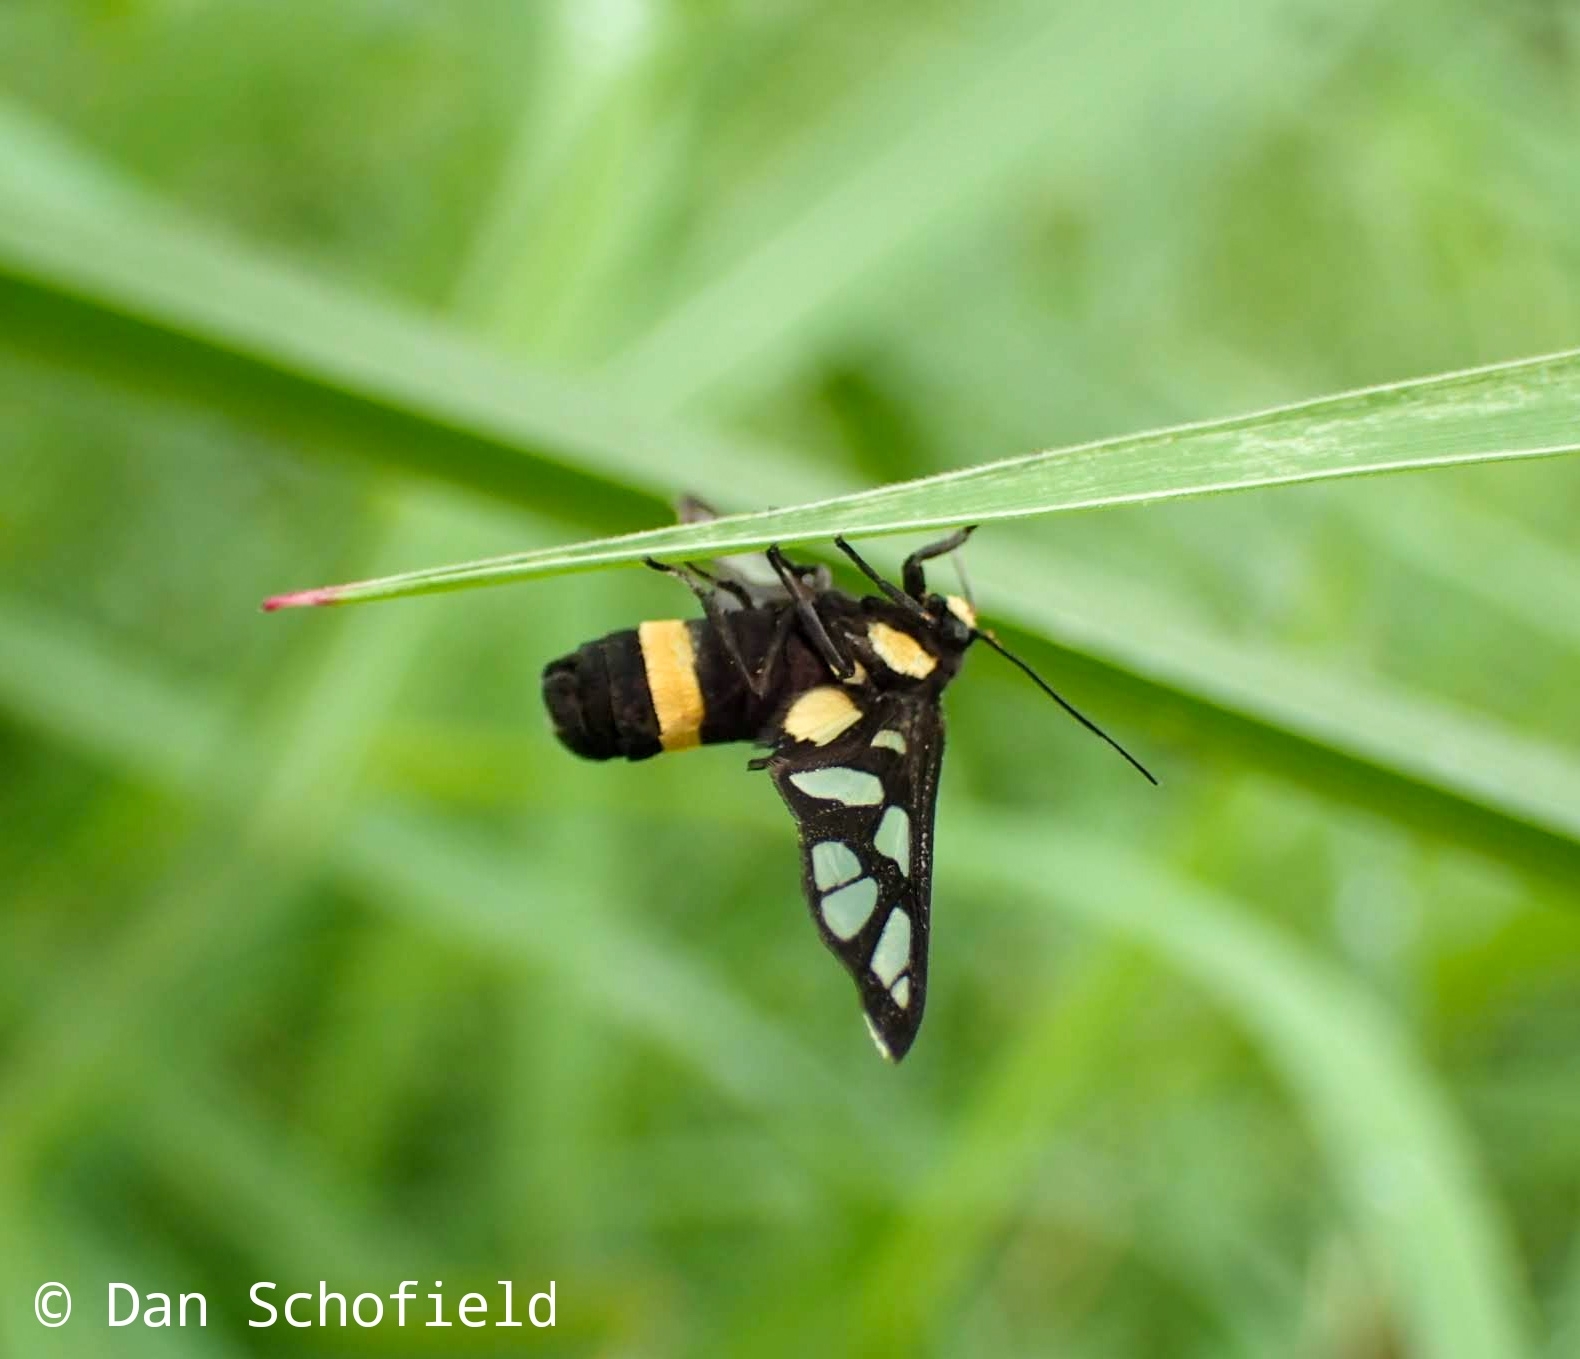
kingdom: Animalia
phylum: Arthropoda
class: Insecta
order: Lepidoptera
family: Erebidae
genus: Amata
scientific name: Amata sperbius
